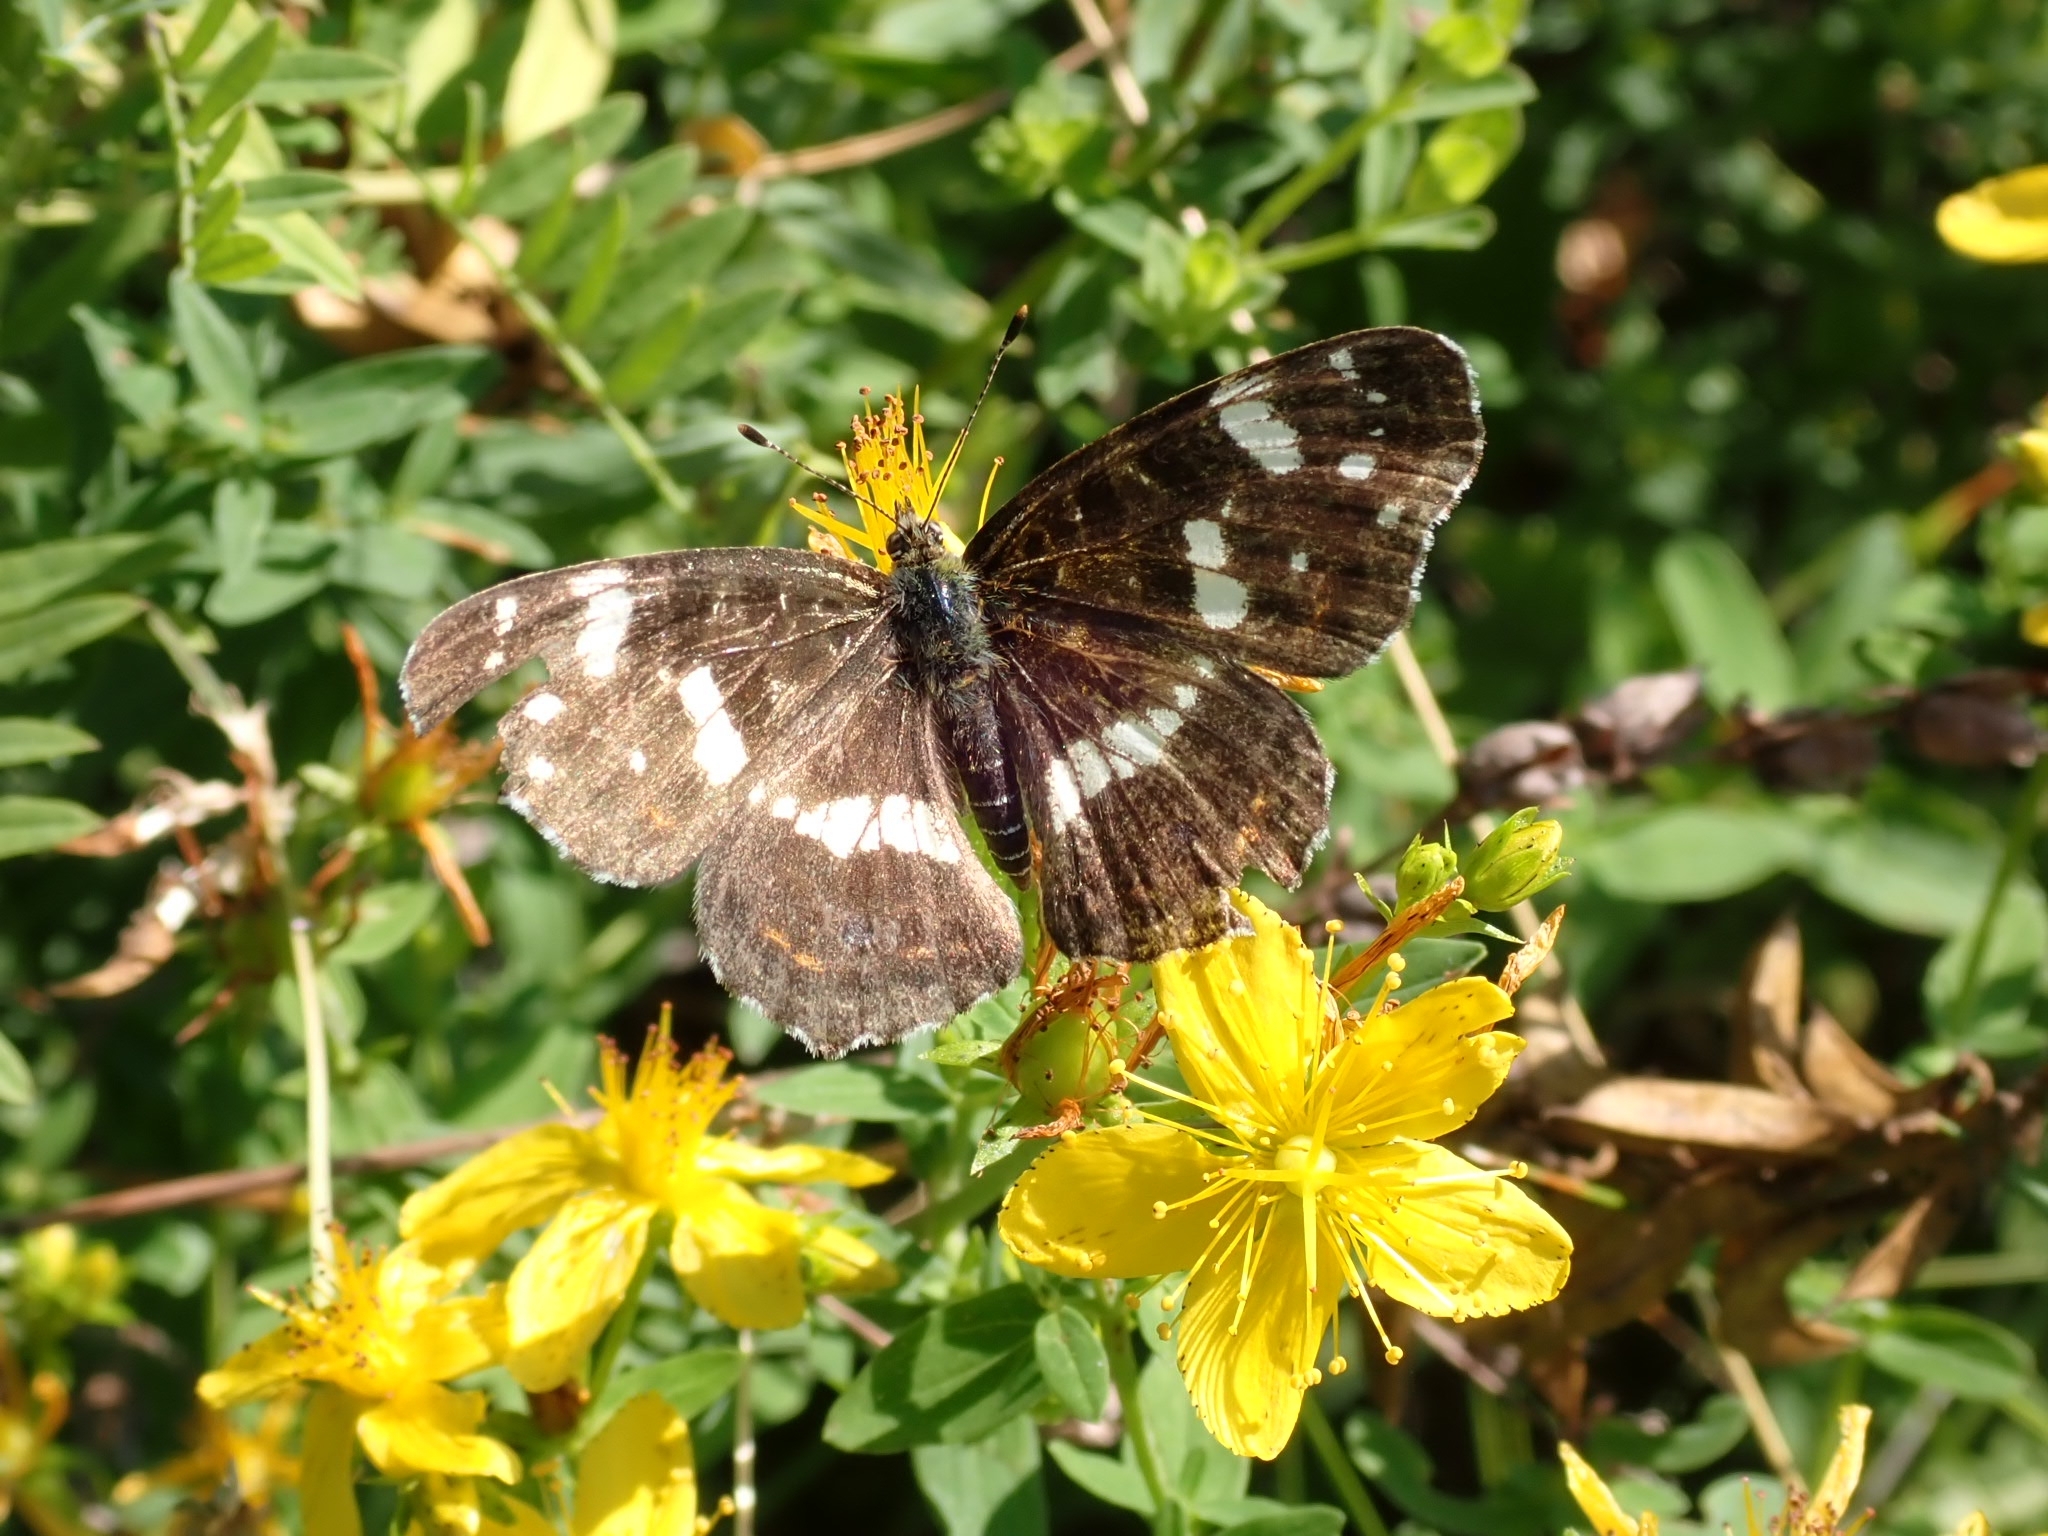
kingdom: Animalia
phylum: Arthropoda
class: Insecta
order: Lepidoptera
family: Nymphalidae
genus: Araschnia
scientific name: Araschnia levana
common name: Map butterfly
